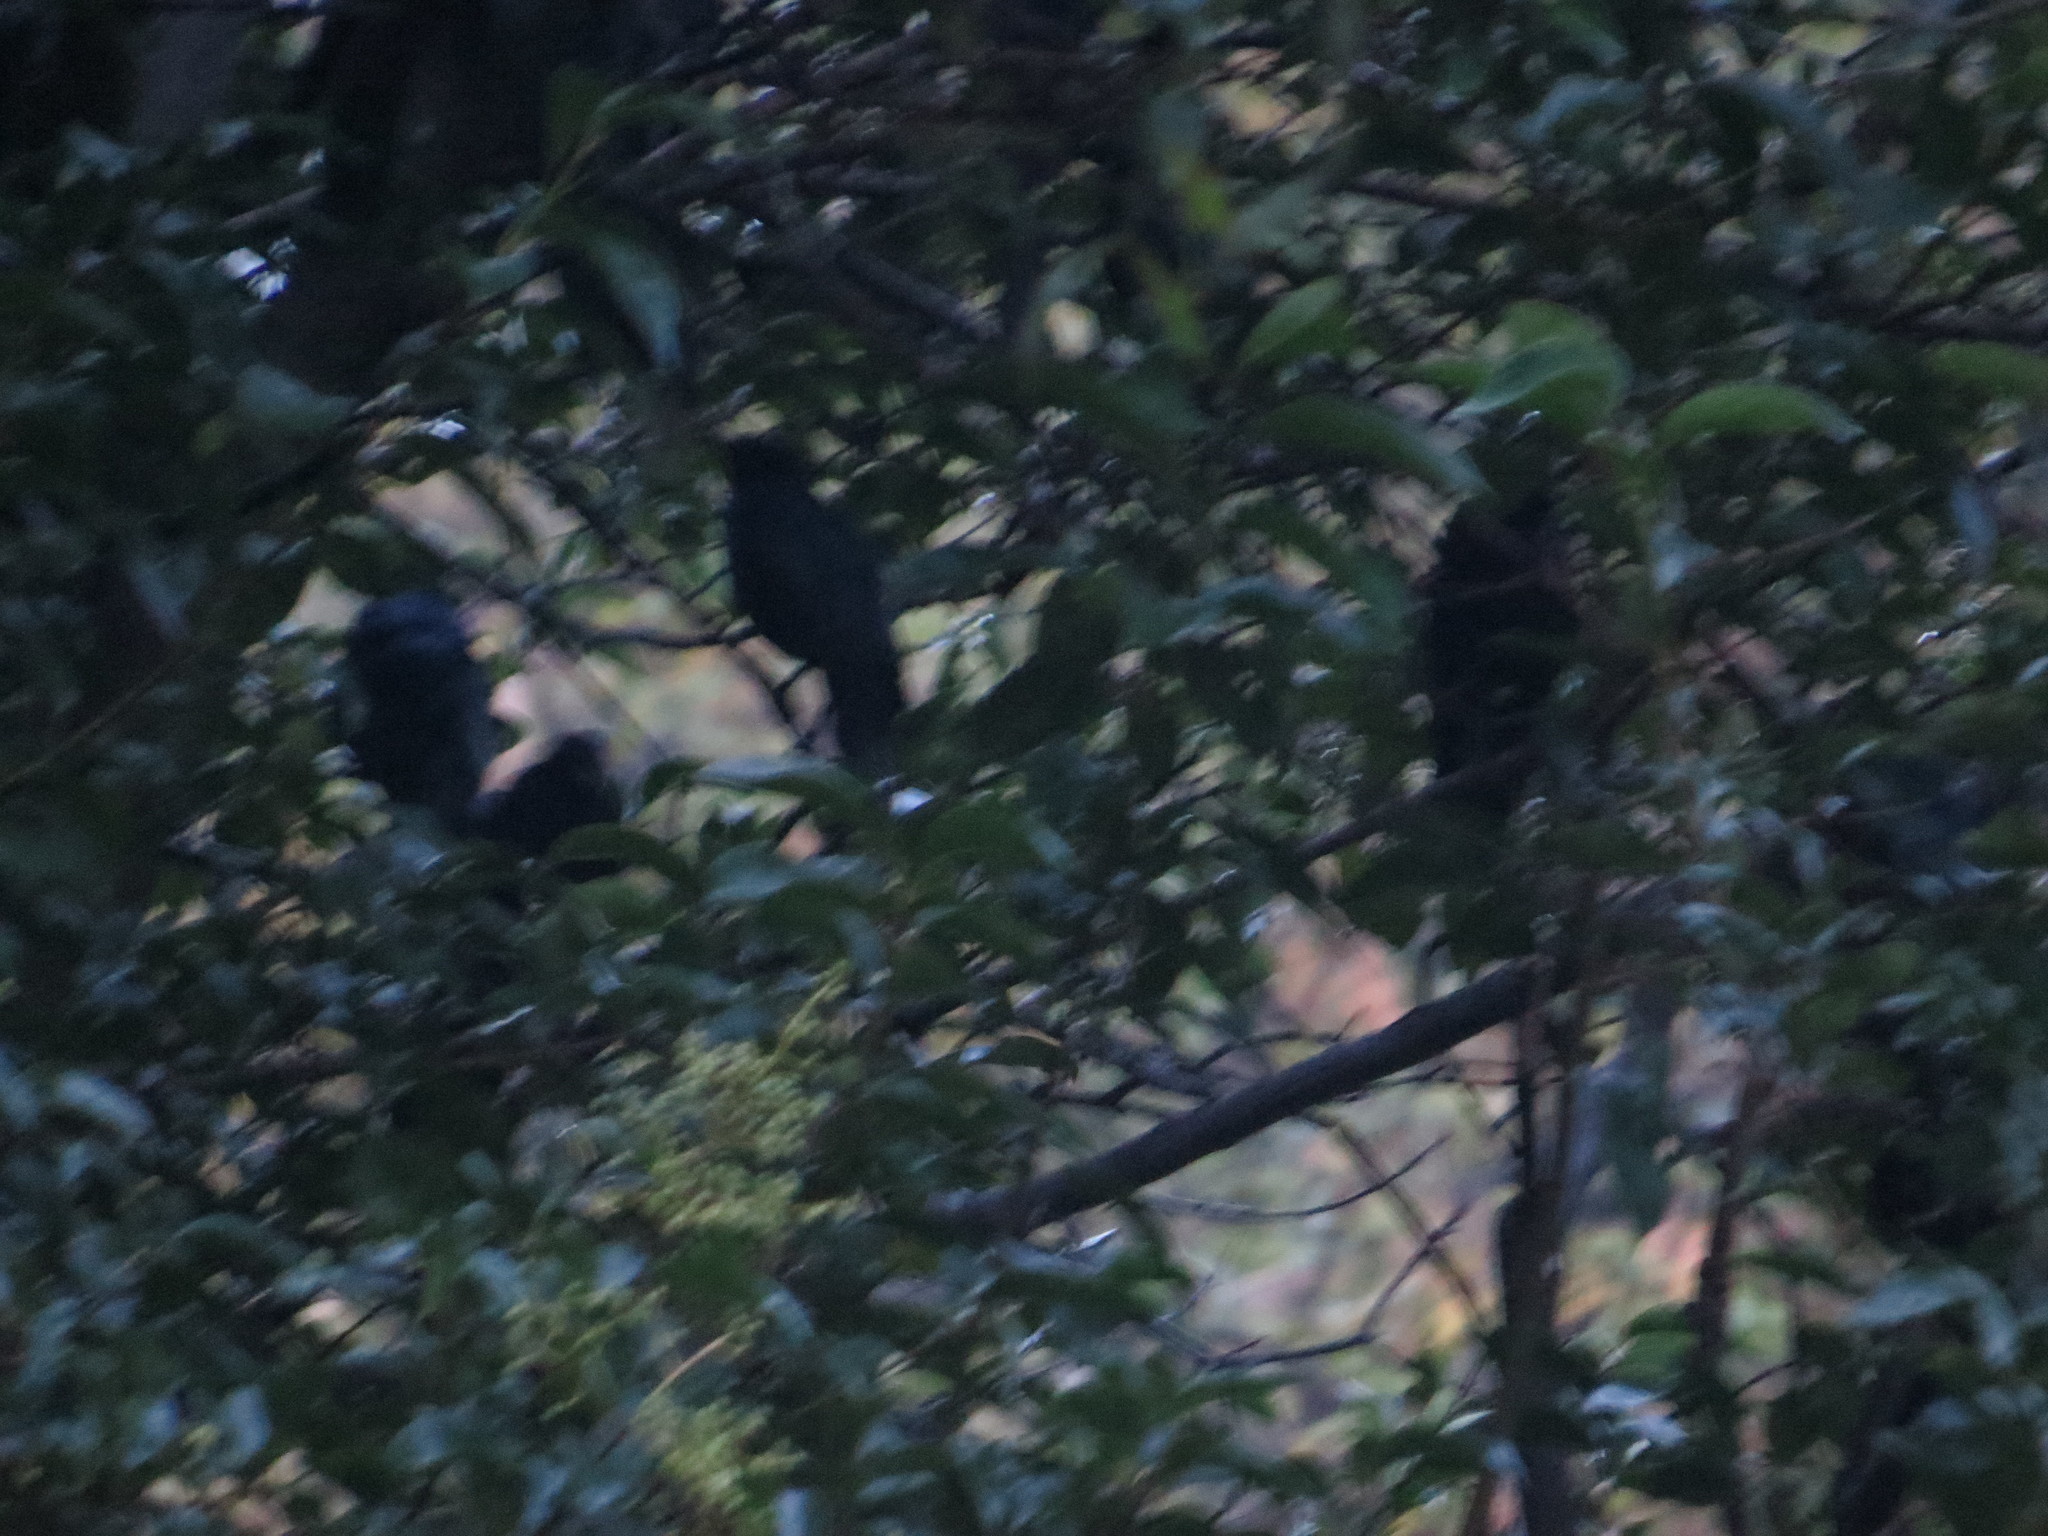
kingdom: Animalia
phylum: Chordata
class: Aves
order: Passeriformes
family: Icteridae
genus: Quiscalus
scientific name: Quiscalus mexicanus
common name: Great-tailed grackle
